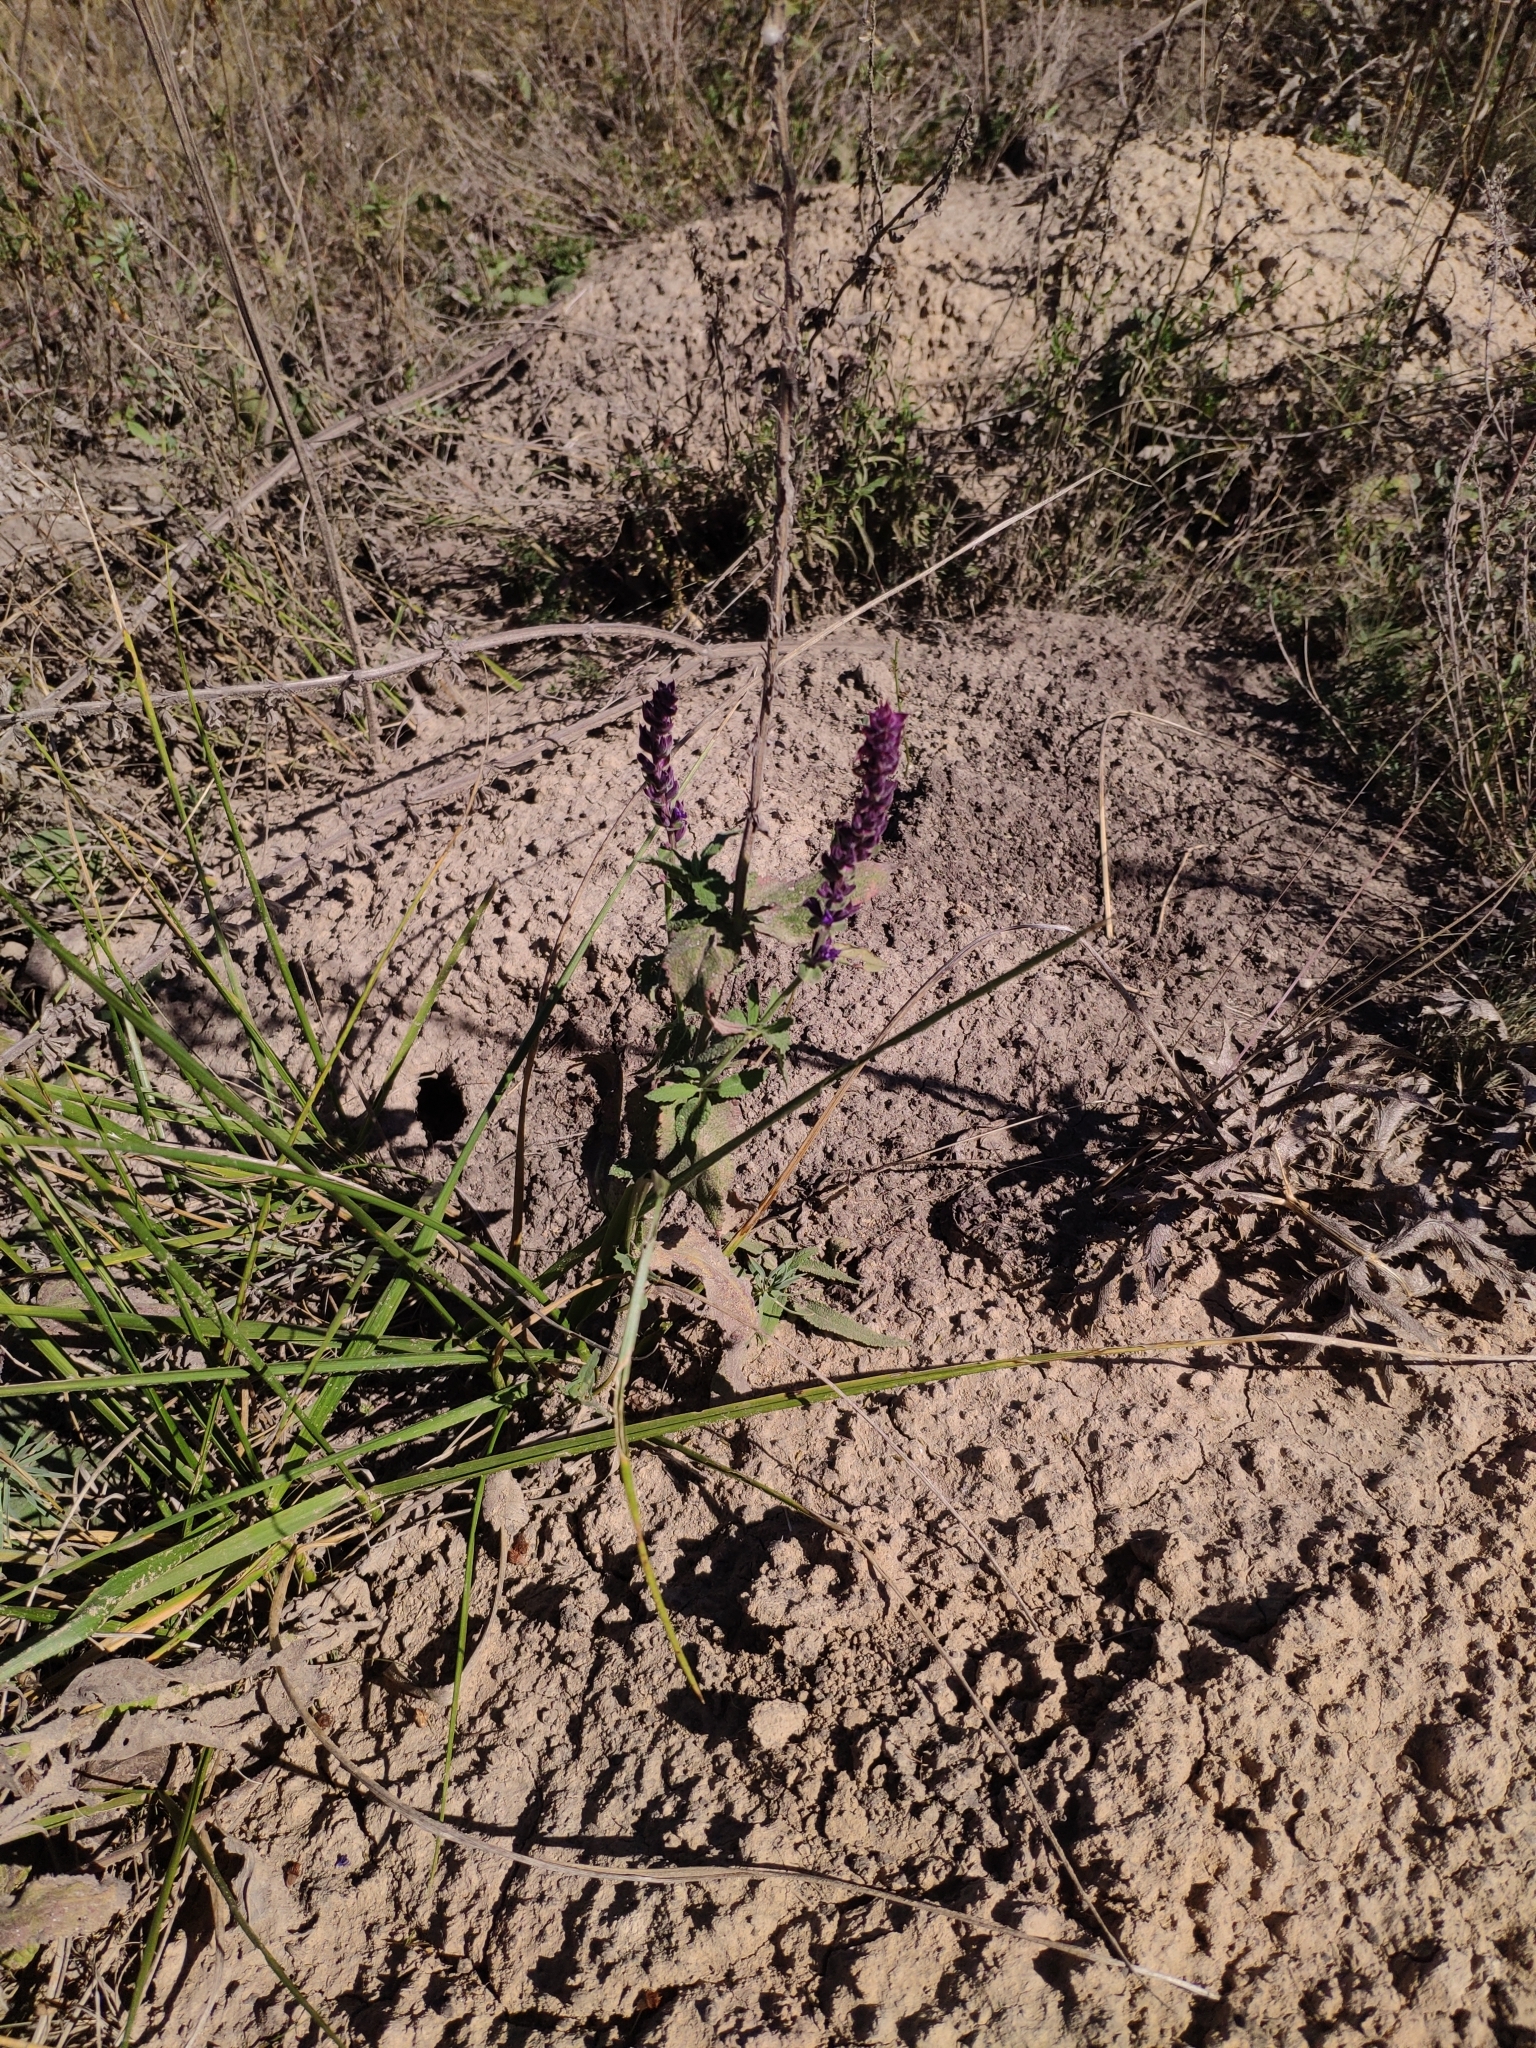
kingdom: Plantae
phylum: Tracheophyta
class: Magnoliopsida
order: Lamiales
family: Lamiaceae
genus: Salvia
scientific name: Salvia nemorosa
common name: Balkan clary
